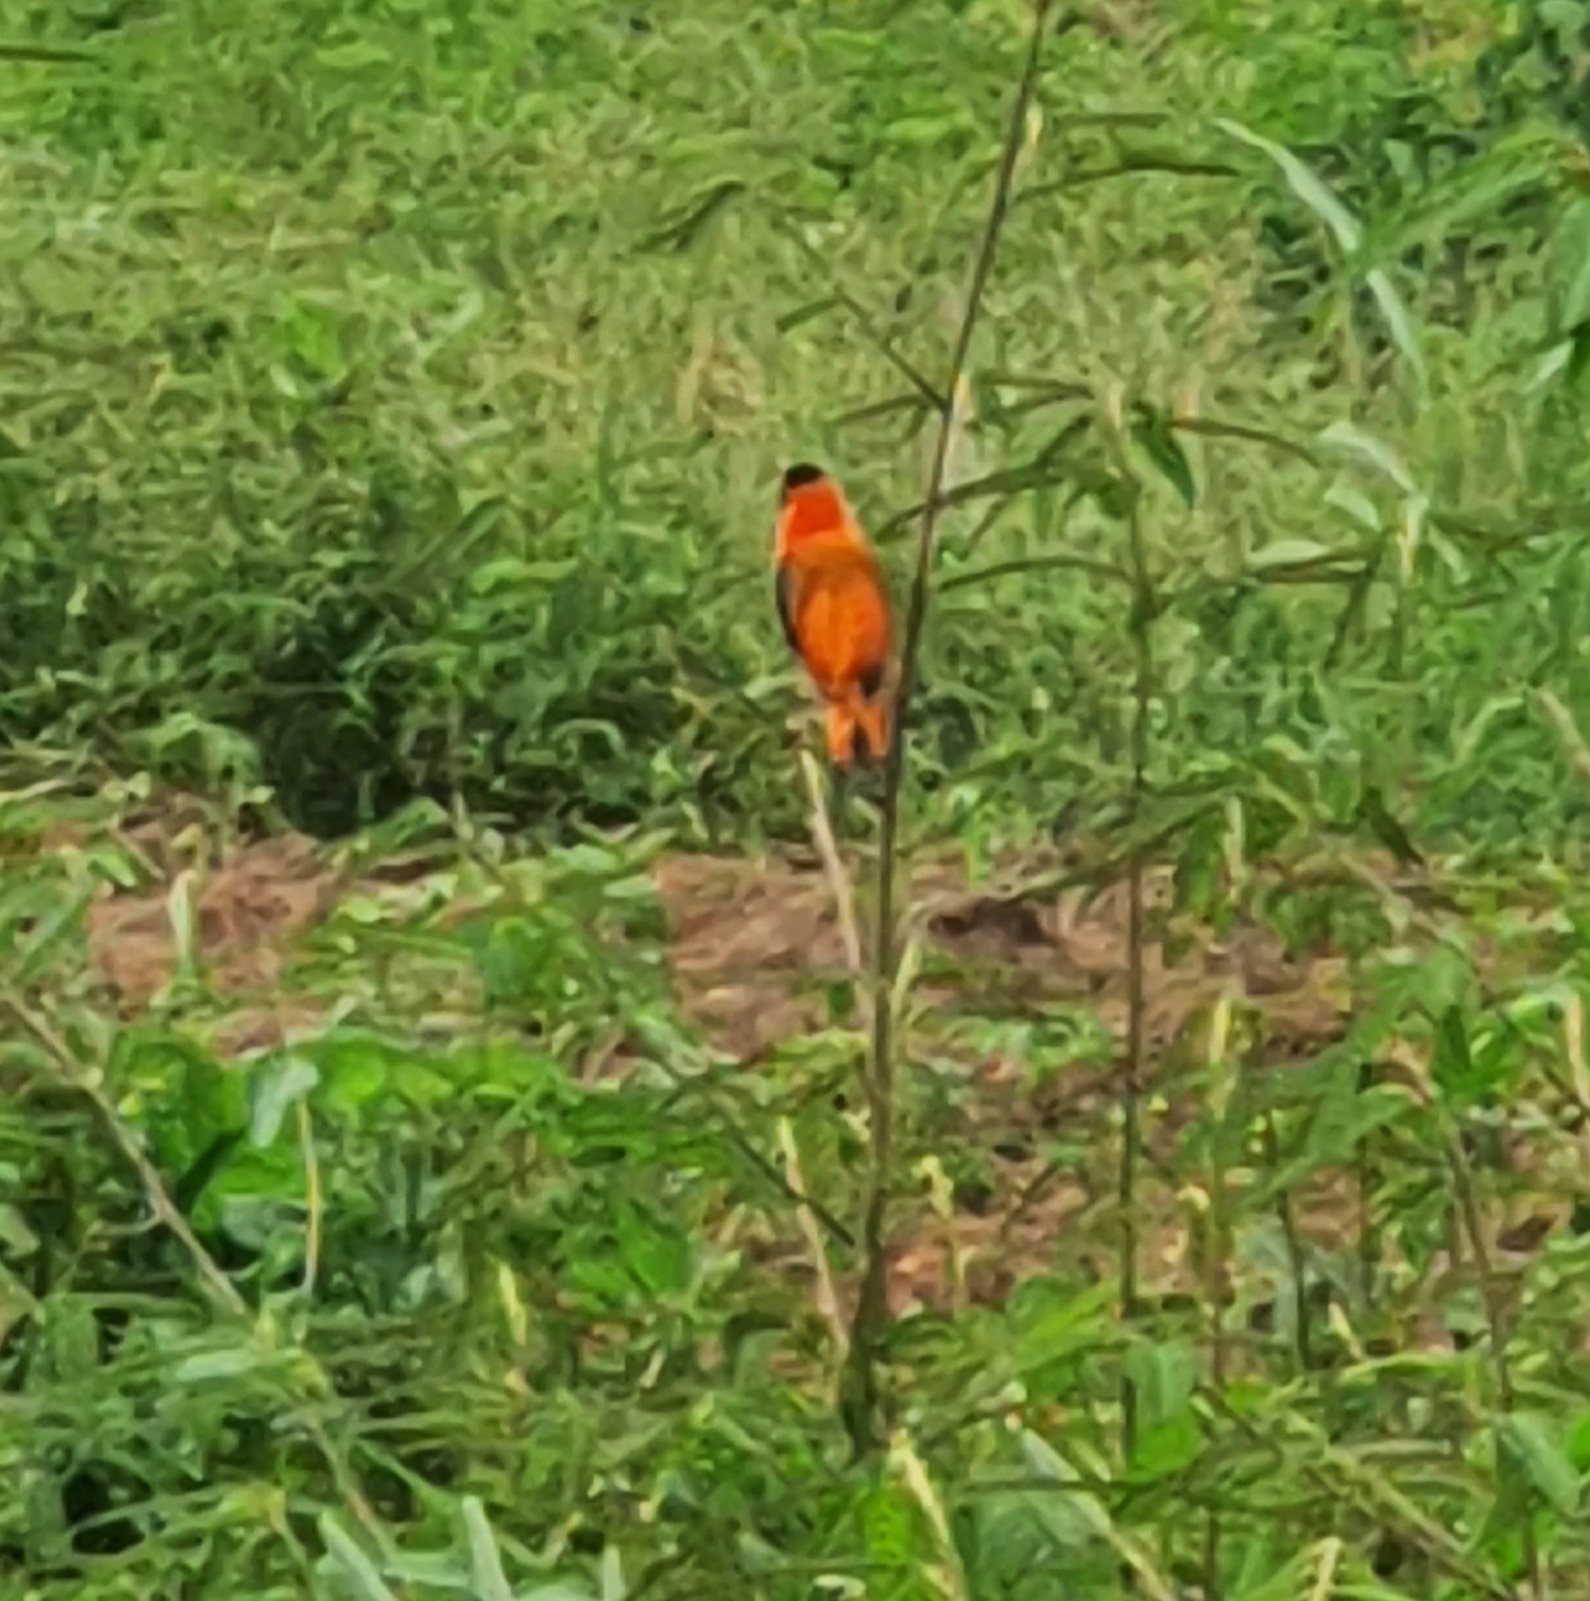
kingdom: Animalia
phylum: Chordata
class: Aves
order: Passeriformes
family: Ploceidae
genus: Euplectes
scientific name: Euplectes franciscanus
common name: Northern red bishop
